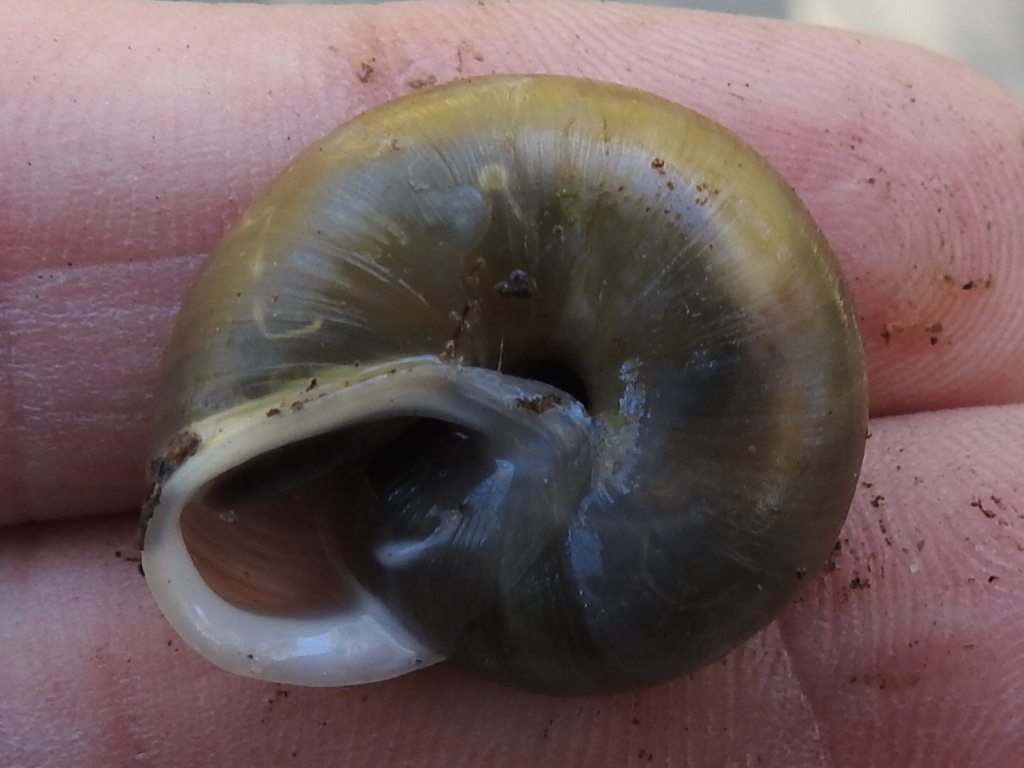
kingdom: Animalia
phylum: Mollusca
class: Gastropoda
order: Stylommatophora
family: Polygyridae
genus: Patera
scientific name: Patera roemeri
